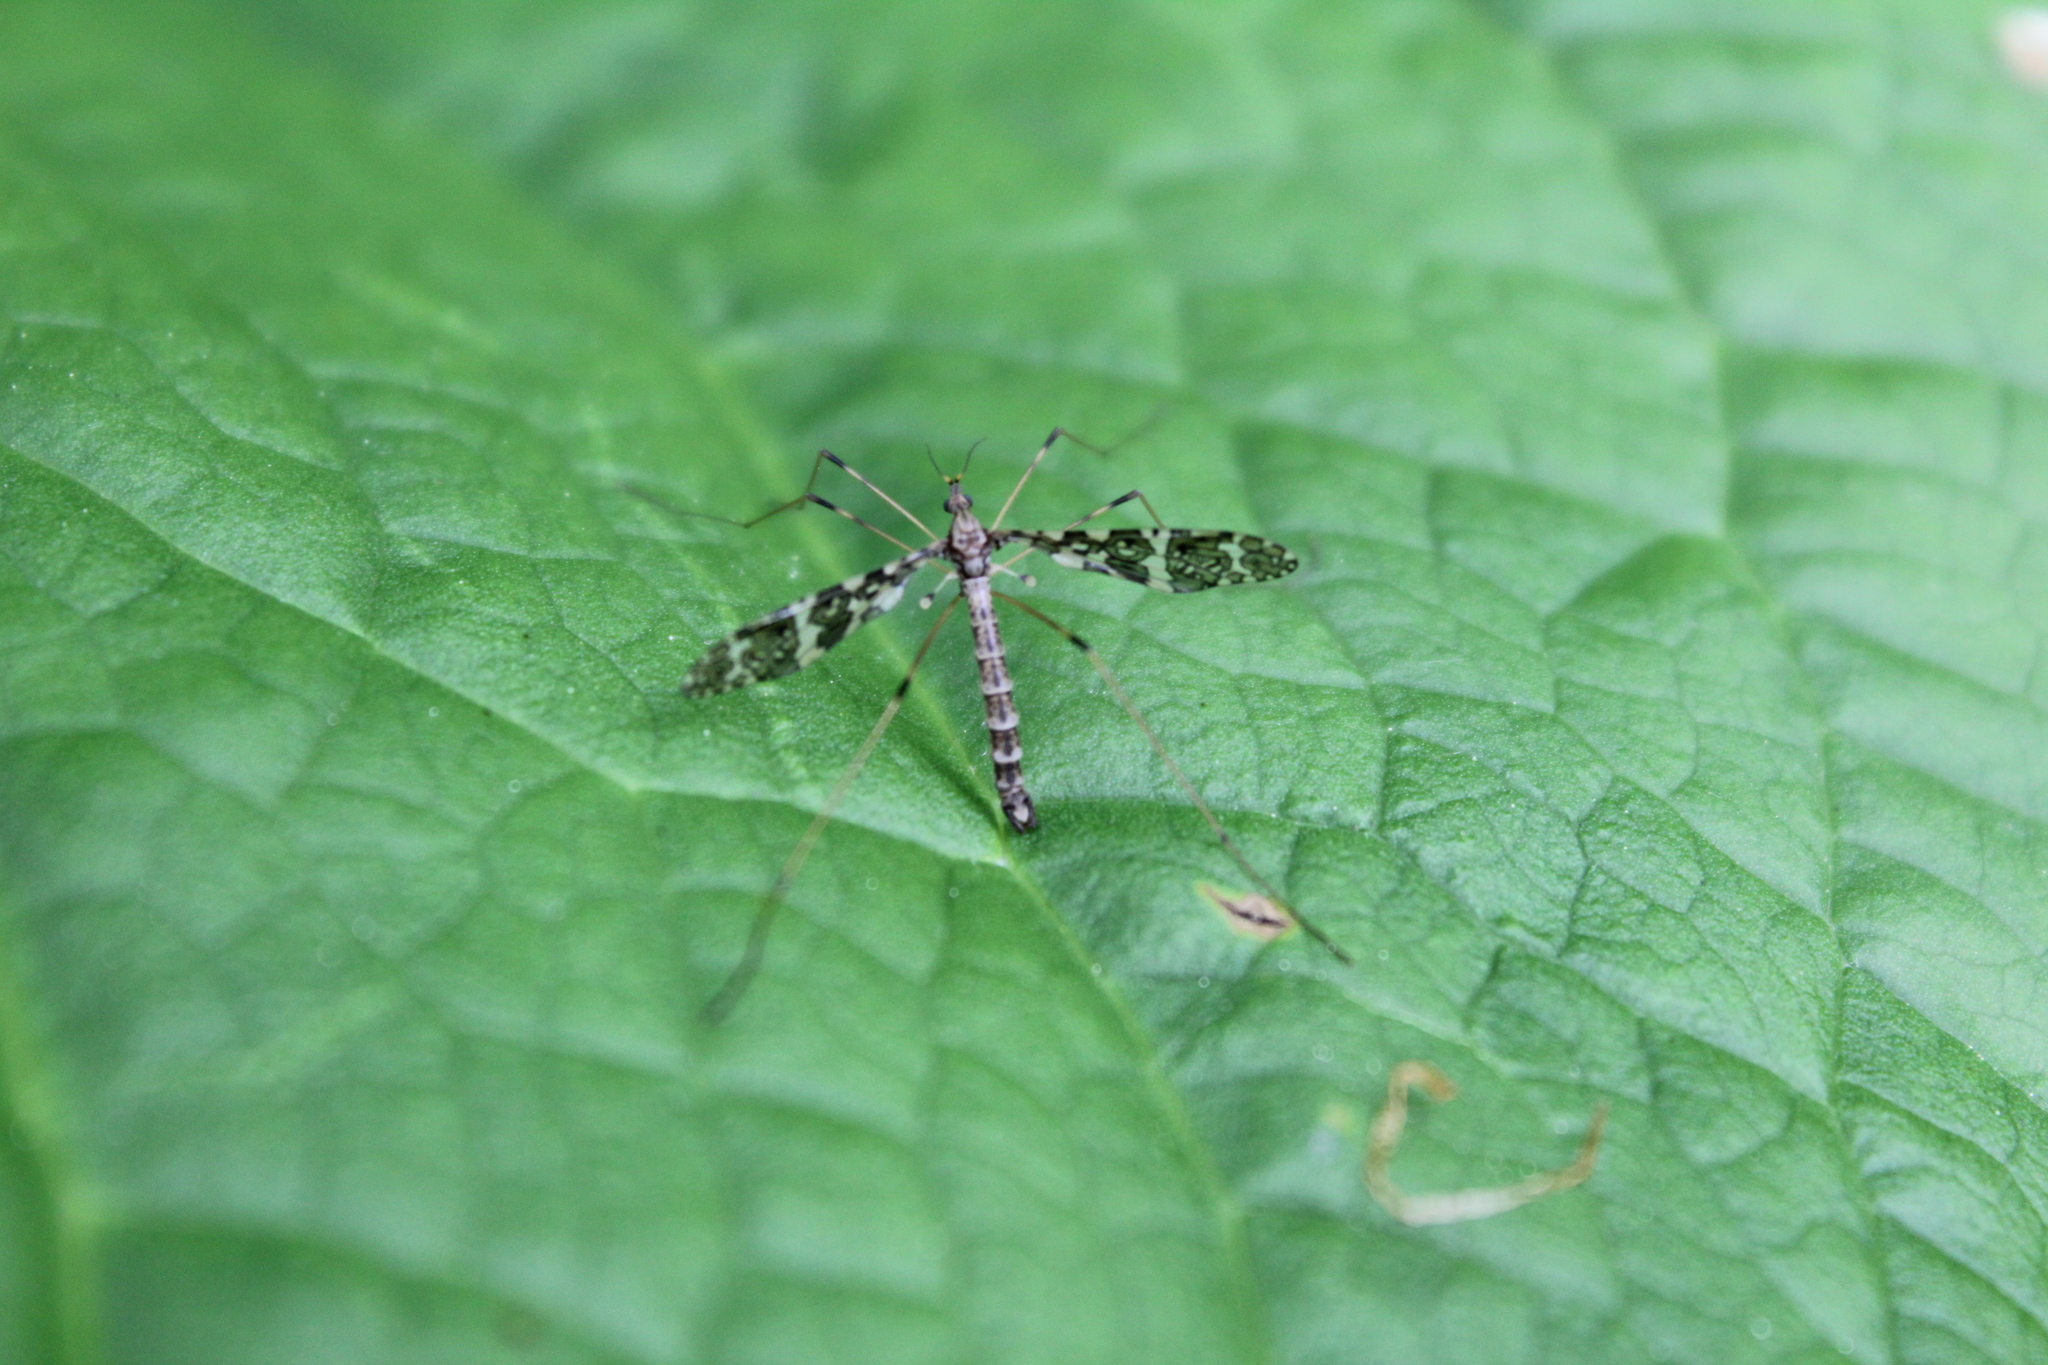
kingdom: Animalia
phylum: Arthropoda
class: Insecta
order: Diptera
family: Limoniidae
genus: Epiphragma
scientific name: Epiphragma fasciapenne
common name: Band-winged crane fly
